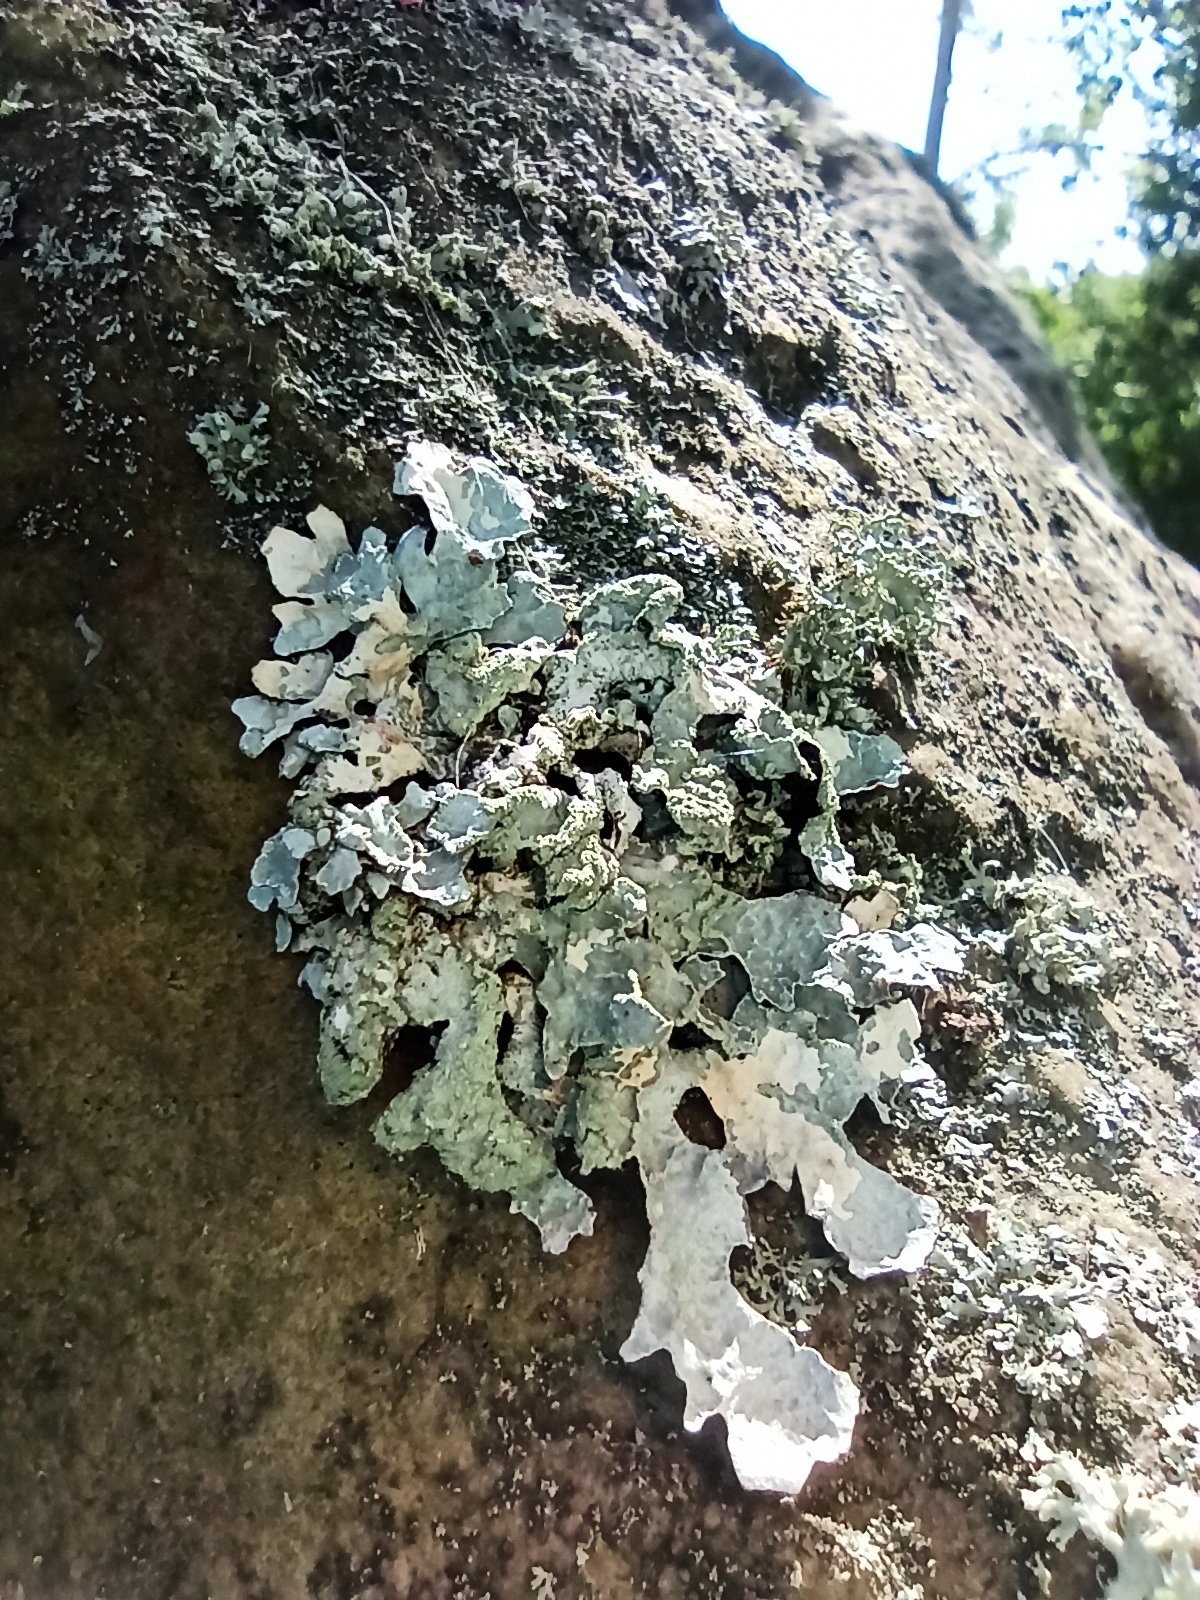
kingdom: Fungi
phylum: Ascomycota
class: Lecanoromycetes
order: Lecanorales
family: Parmeliaceae
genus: Parmelia
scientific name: Parmelia sulcata
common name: Netted shield lichen
